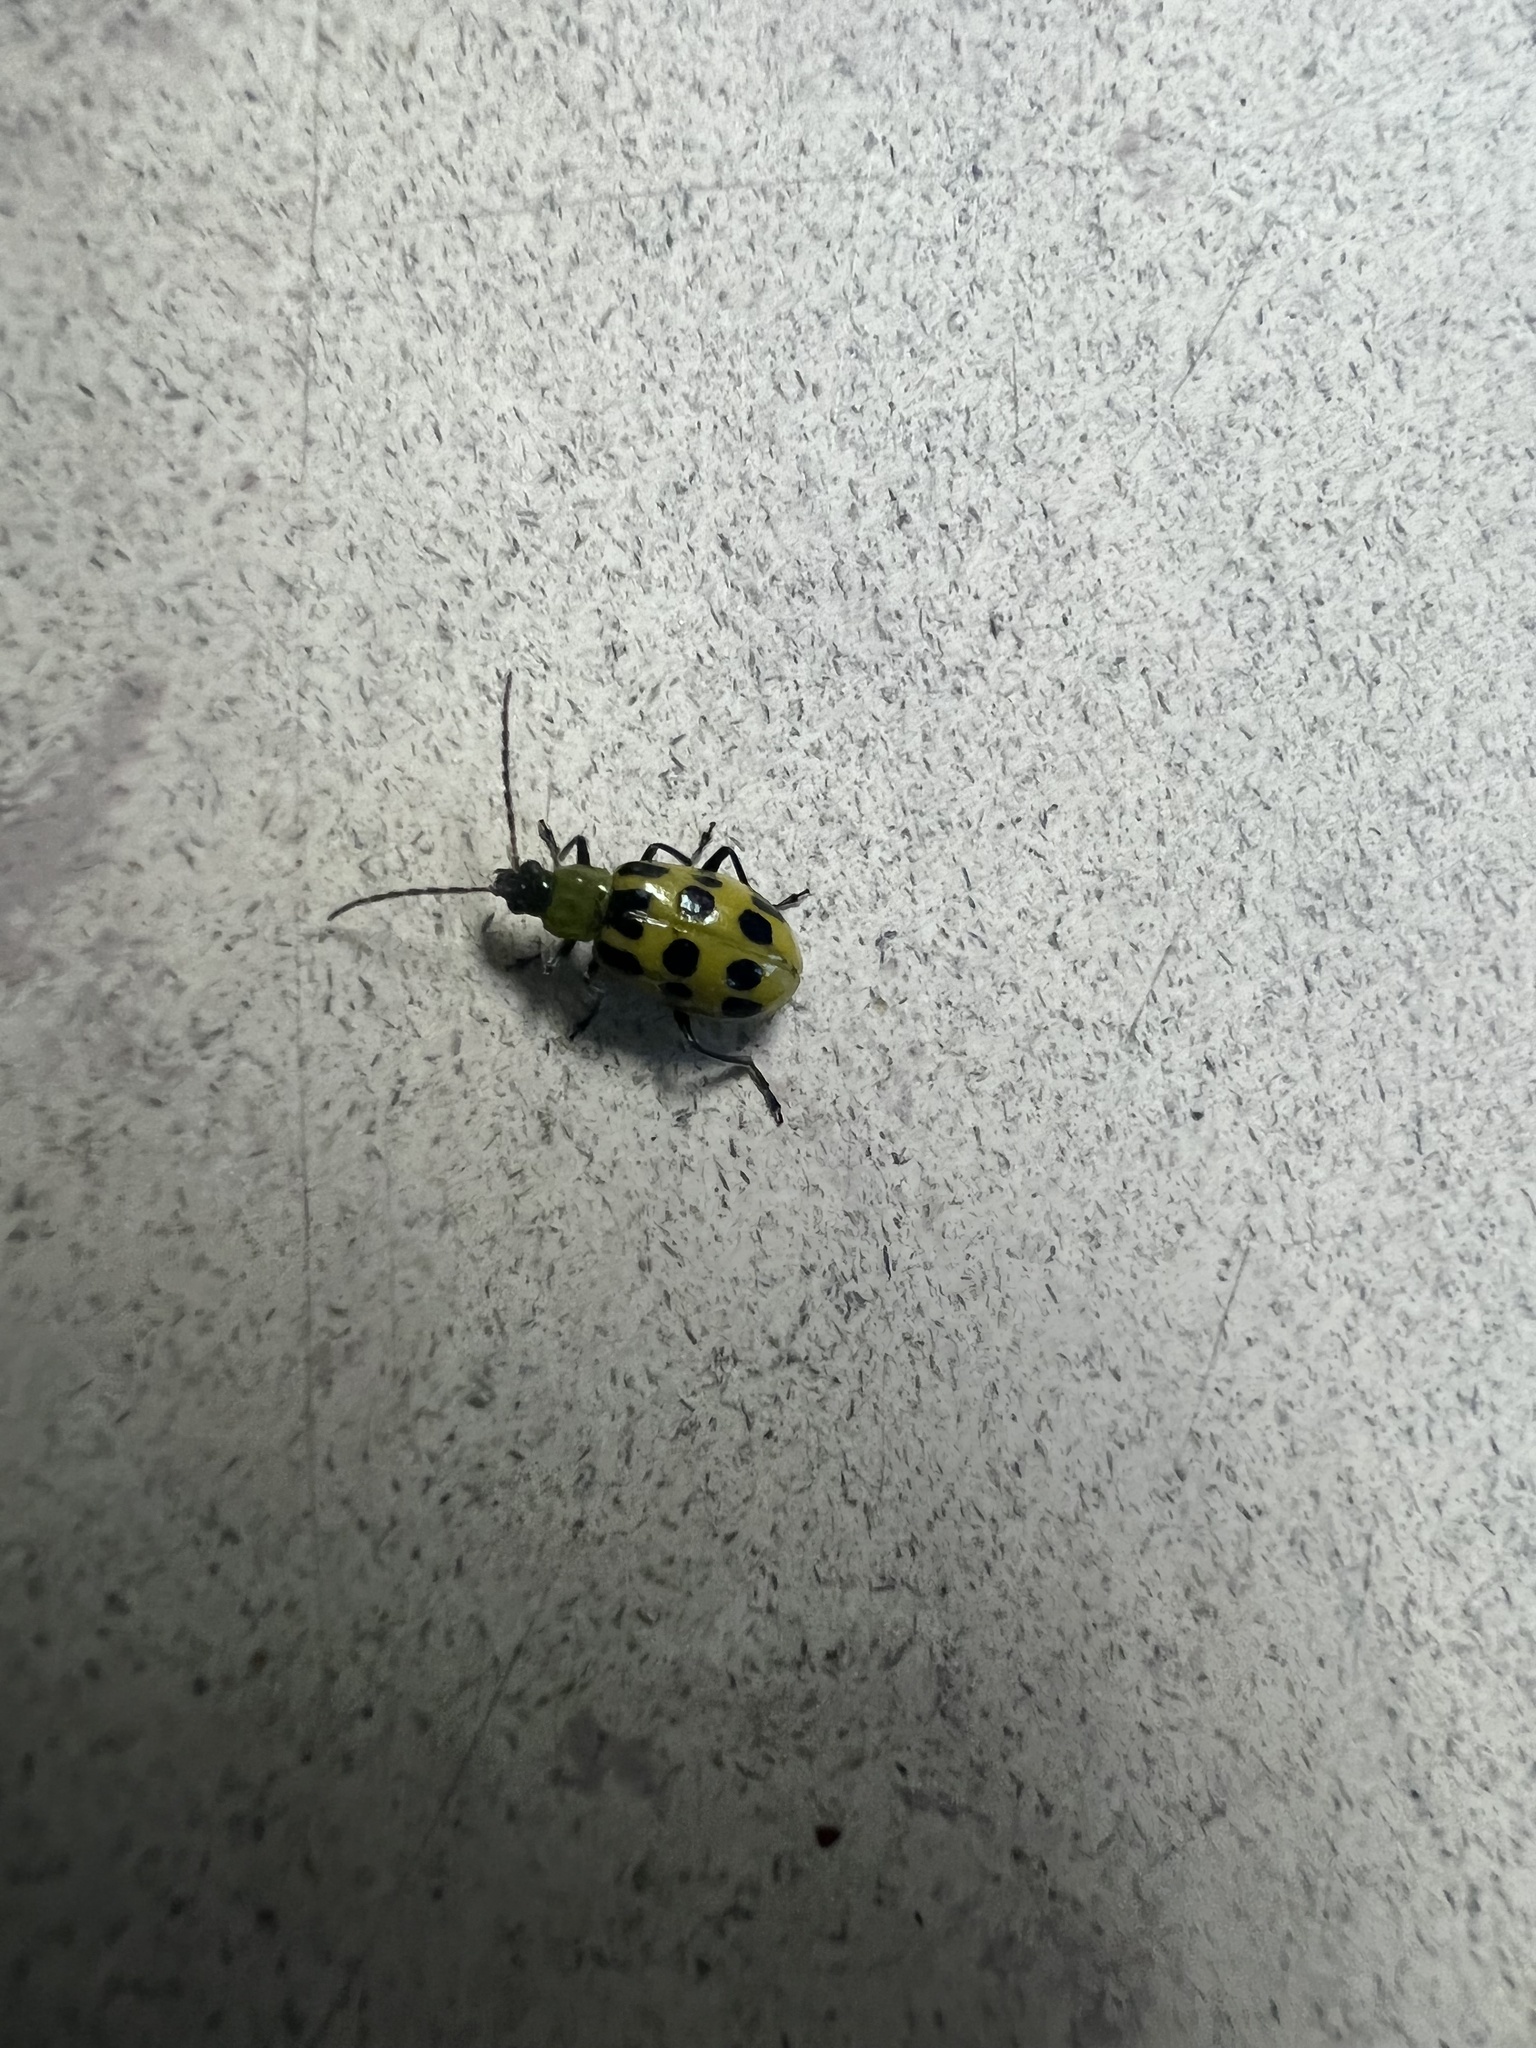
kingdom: Animalia
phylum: Arthropoda
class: Insecta
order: Coleoptera
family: Chrysomelidae
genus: Diabrotica
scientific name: Diabrotica undecimpunctata
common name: Spotted cucumber beetle
